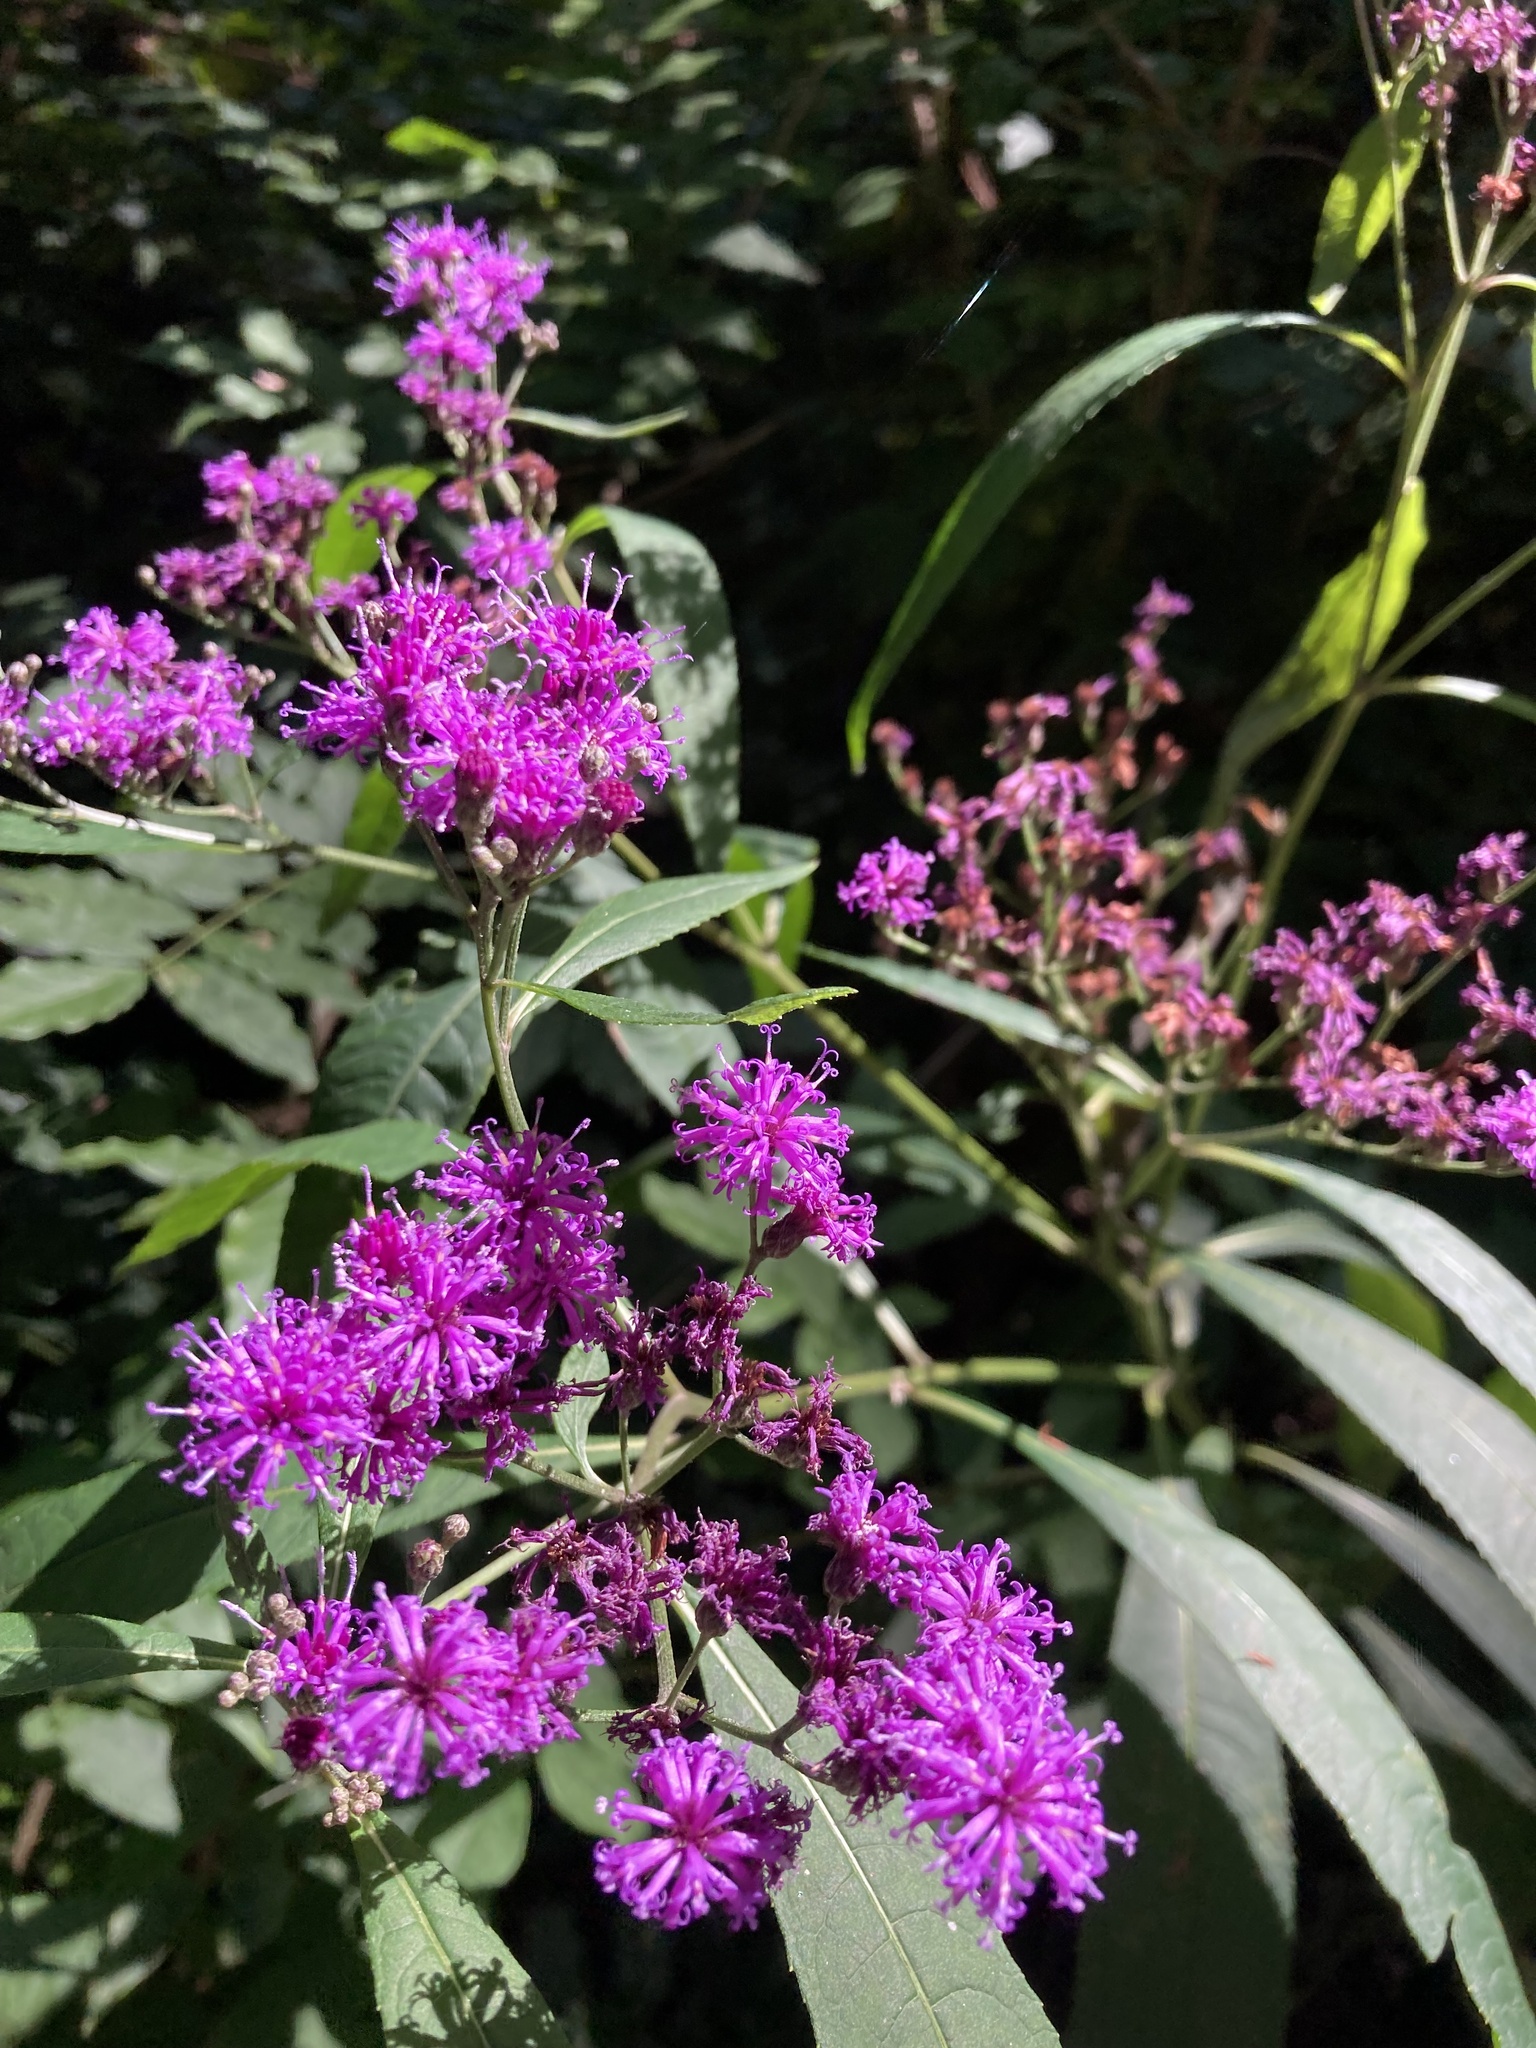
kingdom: Plantae
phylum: Tracheophyta
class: Magnoliopsida
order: Asterales
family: Asteraceae
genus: Vernonia
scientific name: Vernonia gigantea
